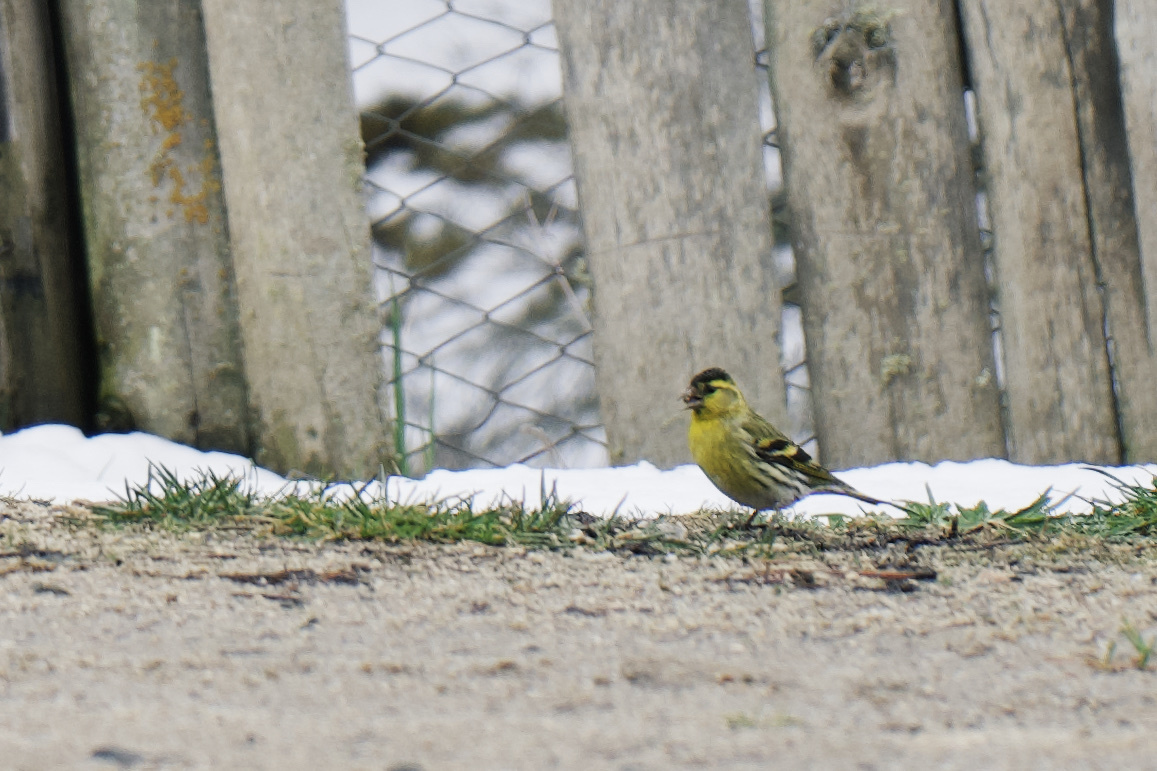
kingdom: Animalia
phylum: Chordata
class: Aves
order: Passeriformes
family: Fringillidae
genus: Spinus
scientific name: Spinus spinus
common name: Eurasian siskin
